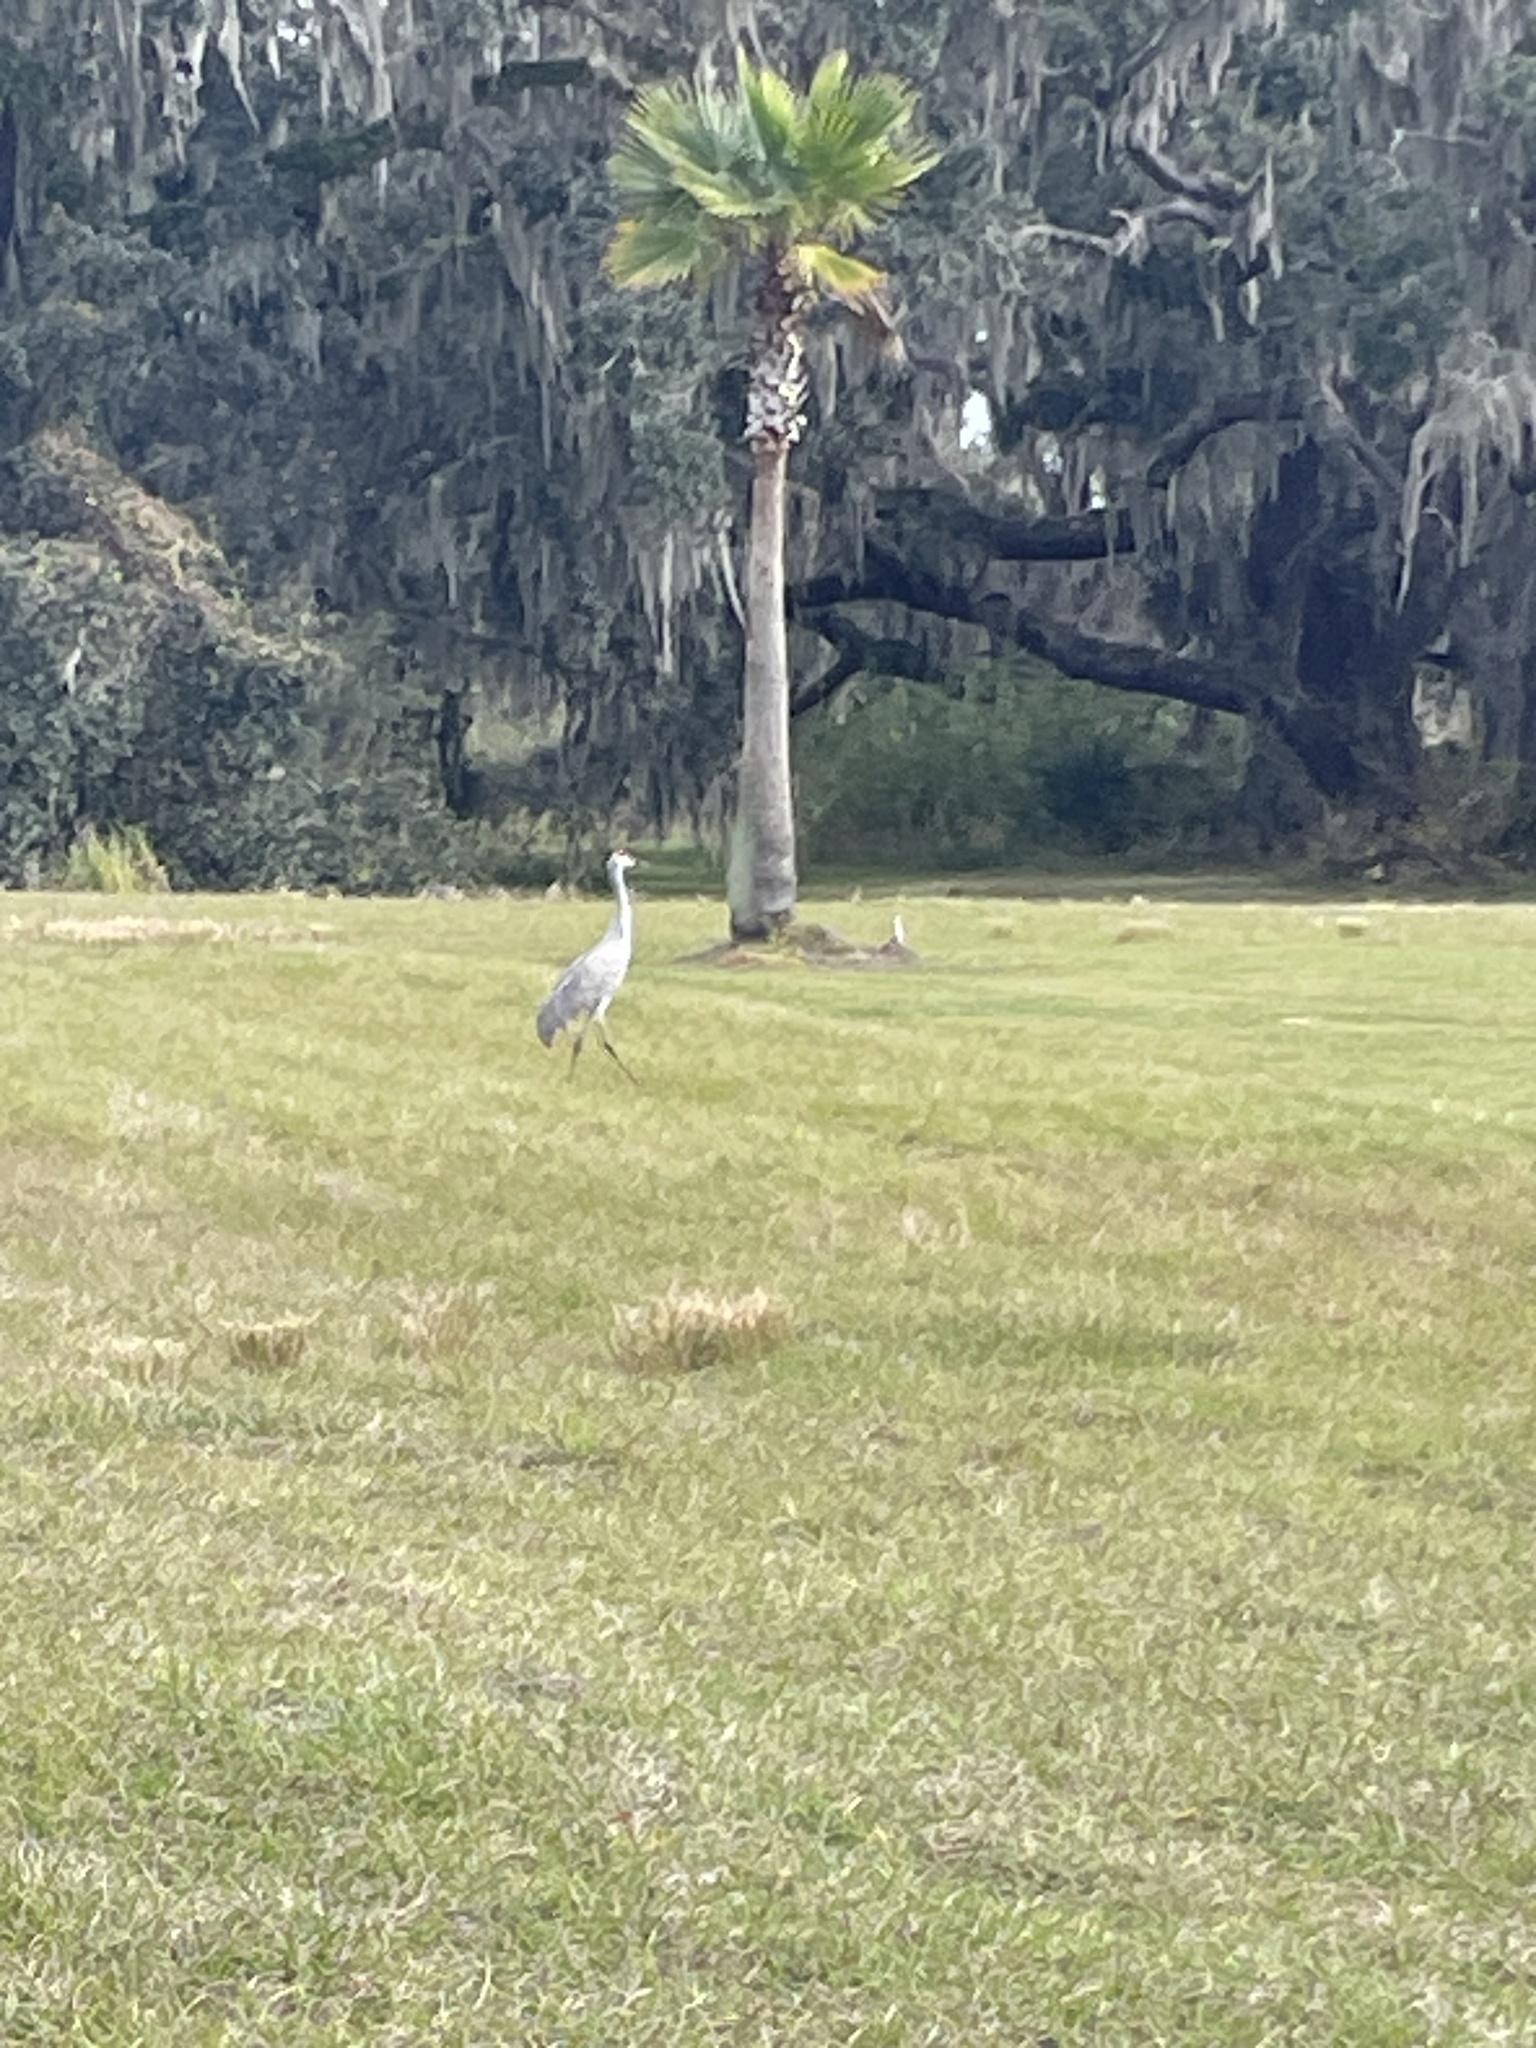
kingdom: Animalia
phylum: Chordata
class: Aves
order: Gruiformes
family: Gruidae
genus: Grus
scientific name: Grus canadensis
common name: Sandhill crane
